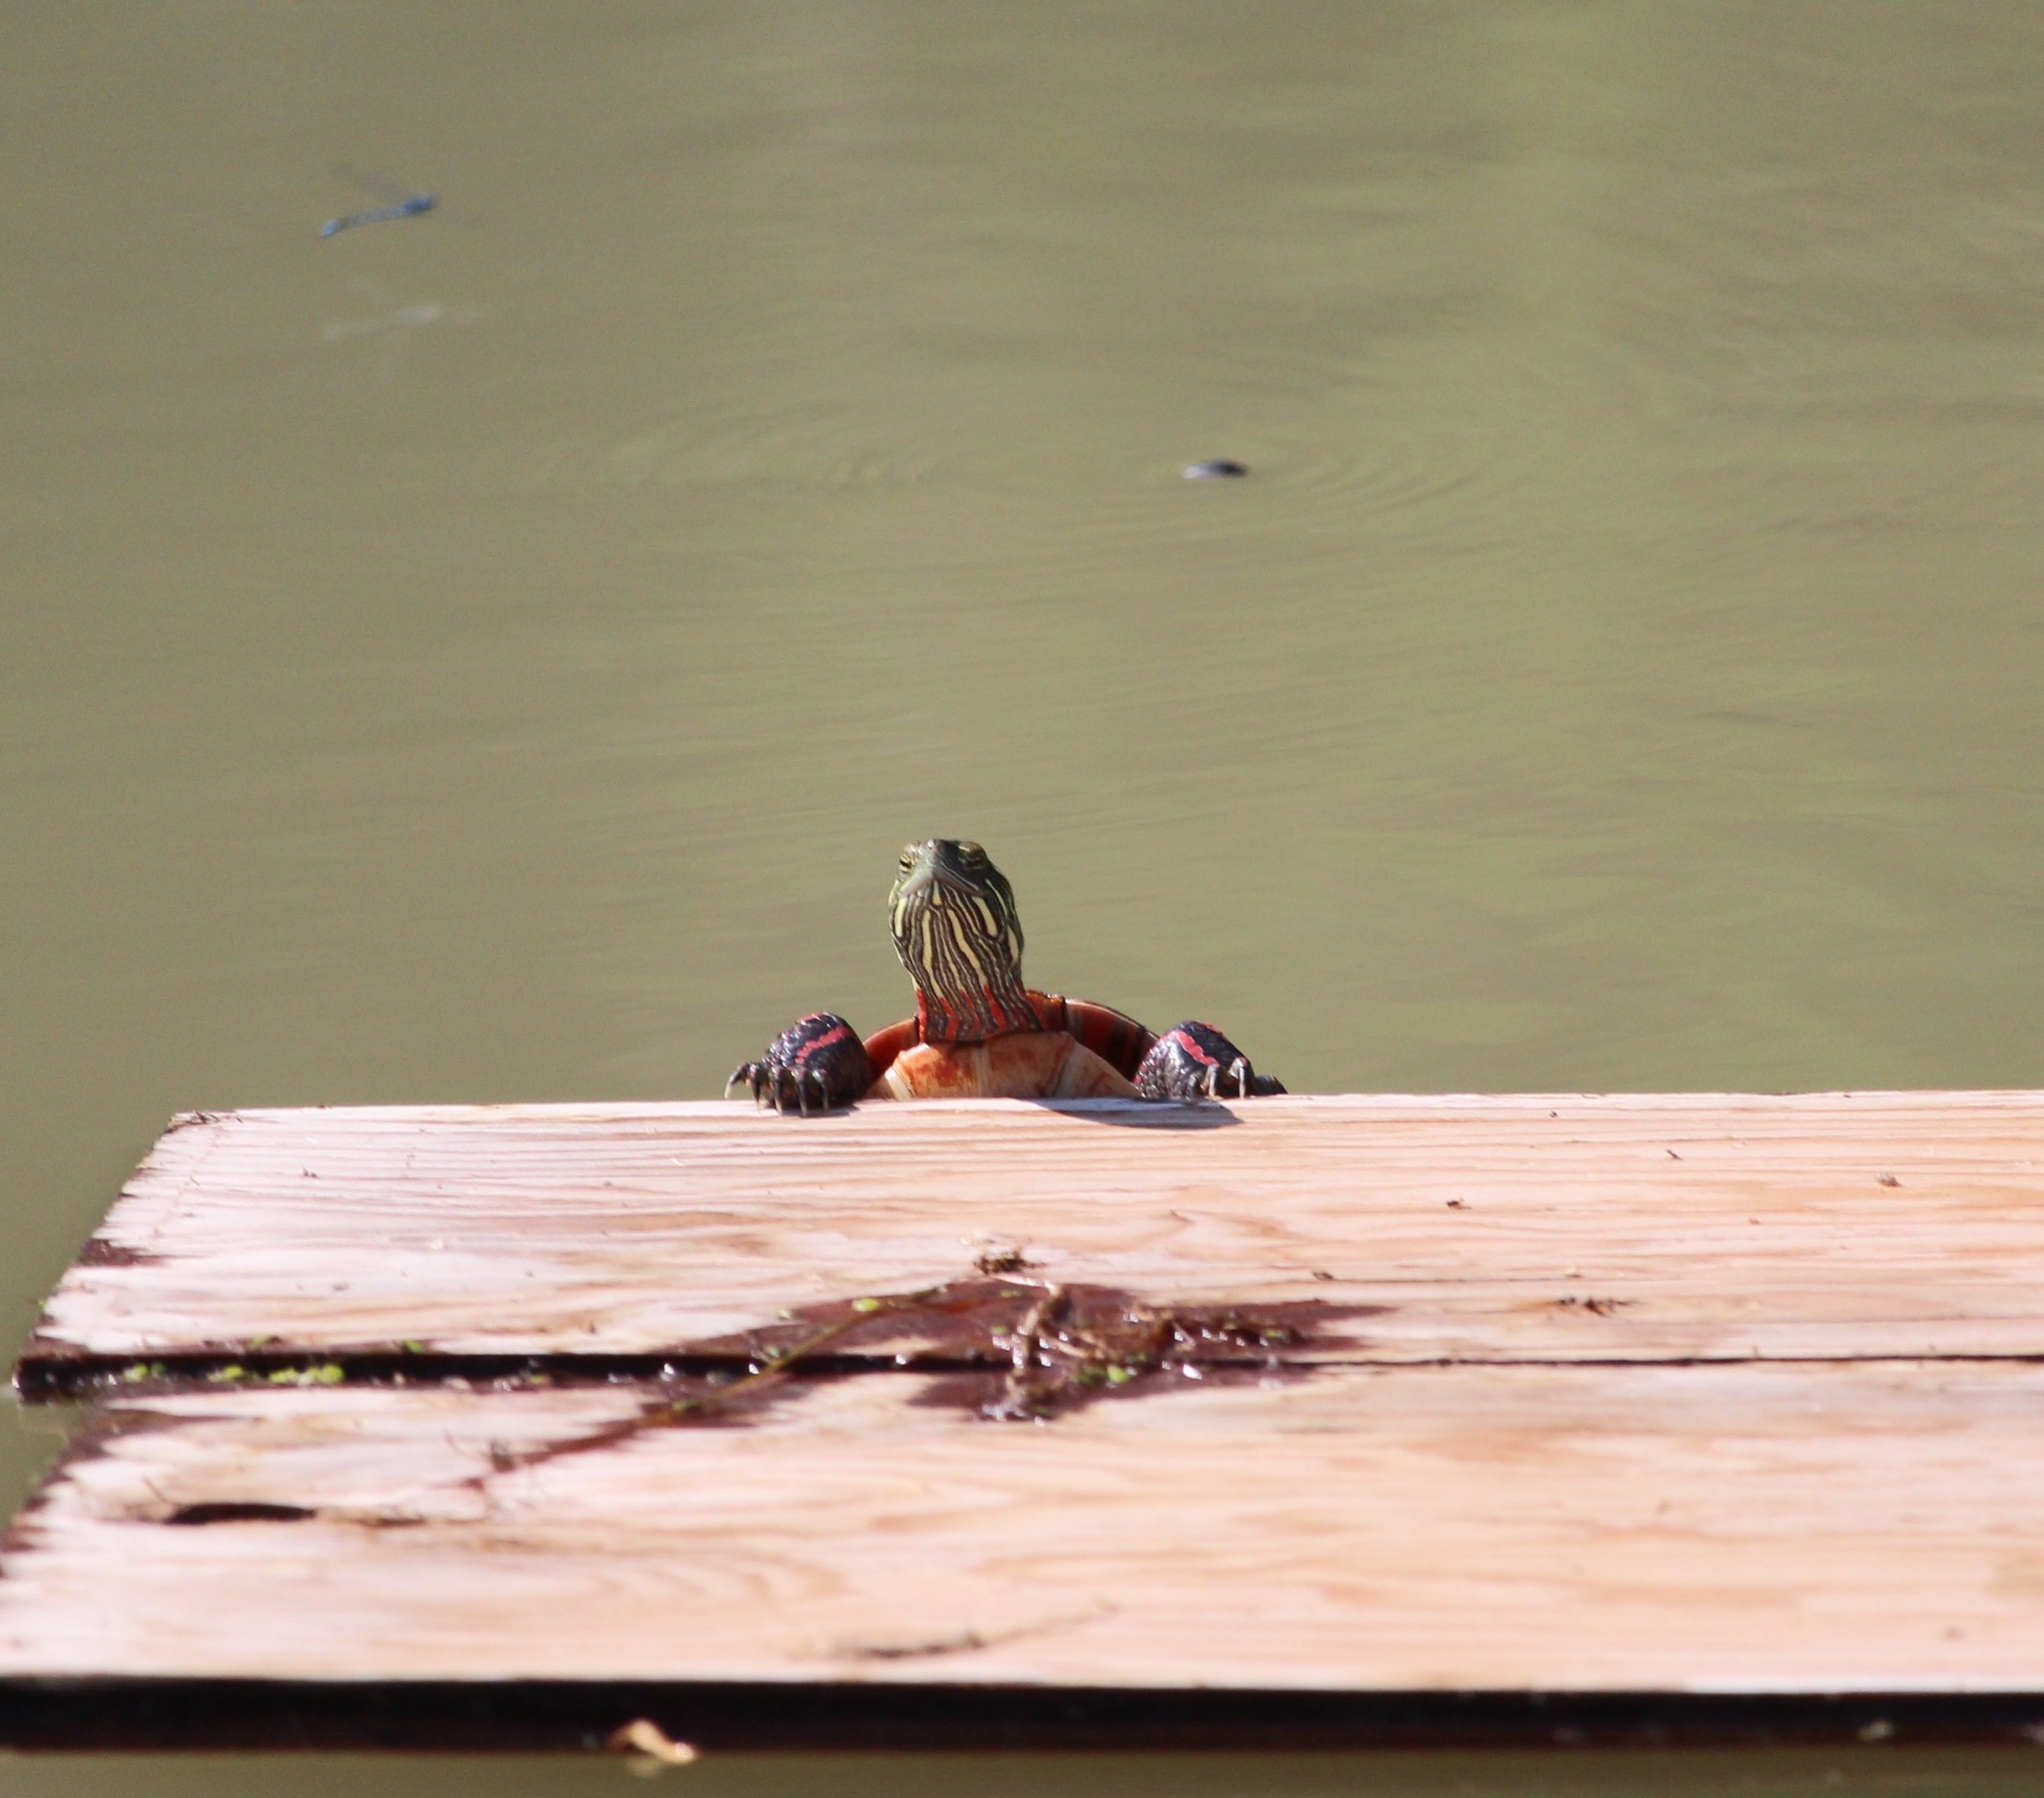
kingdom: Animalia
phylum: Chordata
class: Testudines
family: Emydidae
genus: Chrysemys
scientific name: Chrysemys picta
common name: Painted turtle
